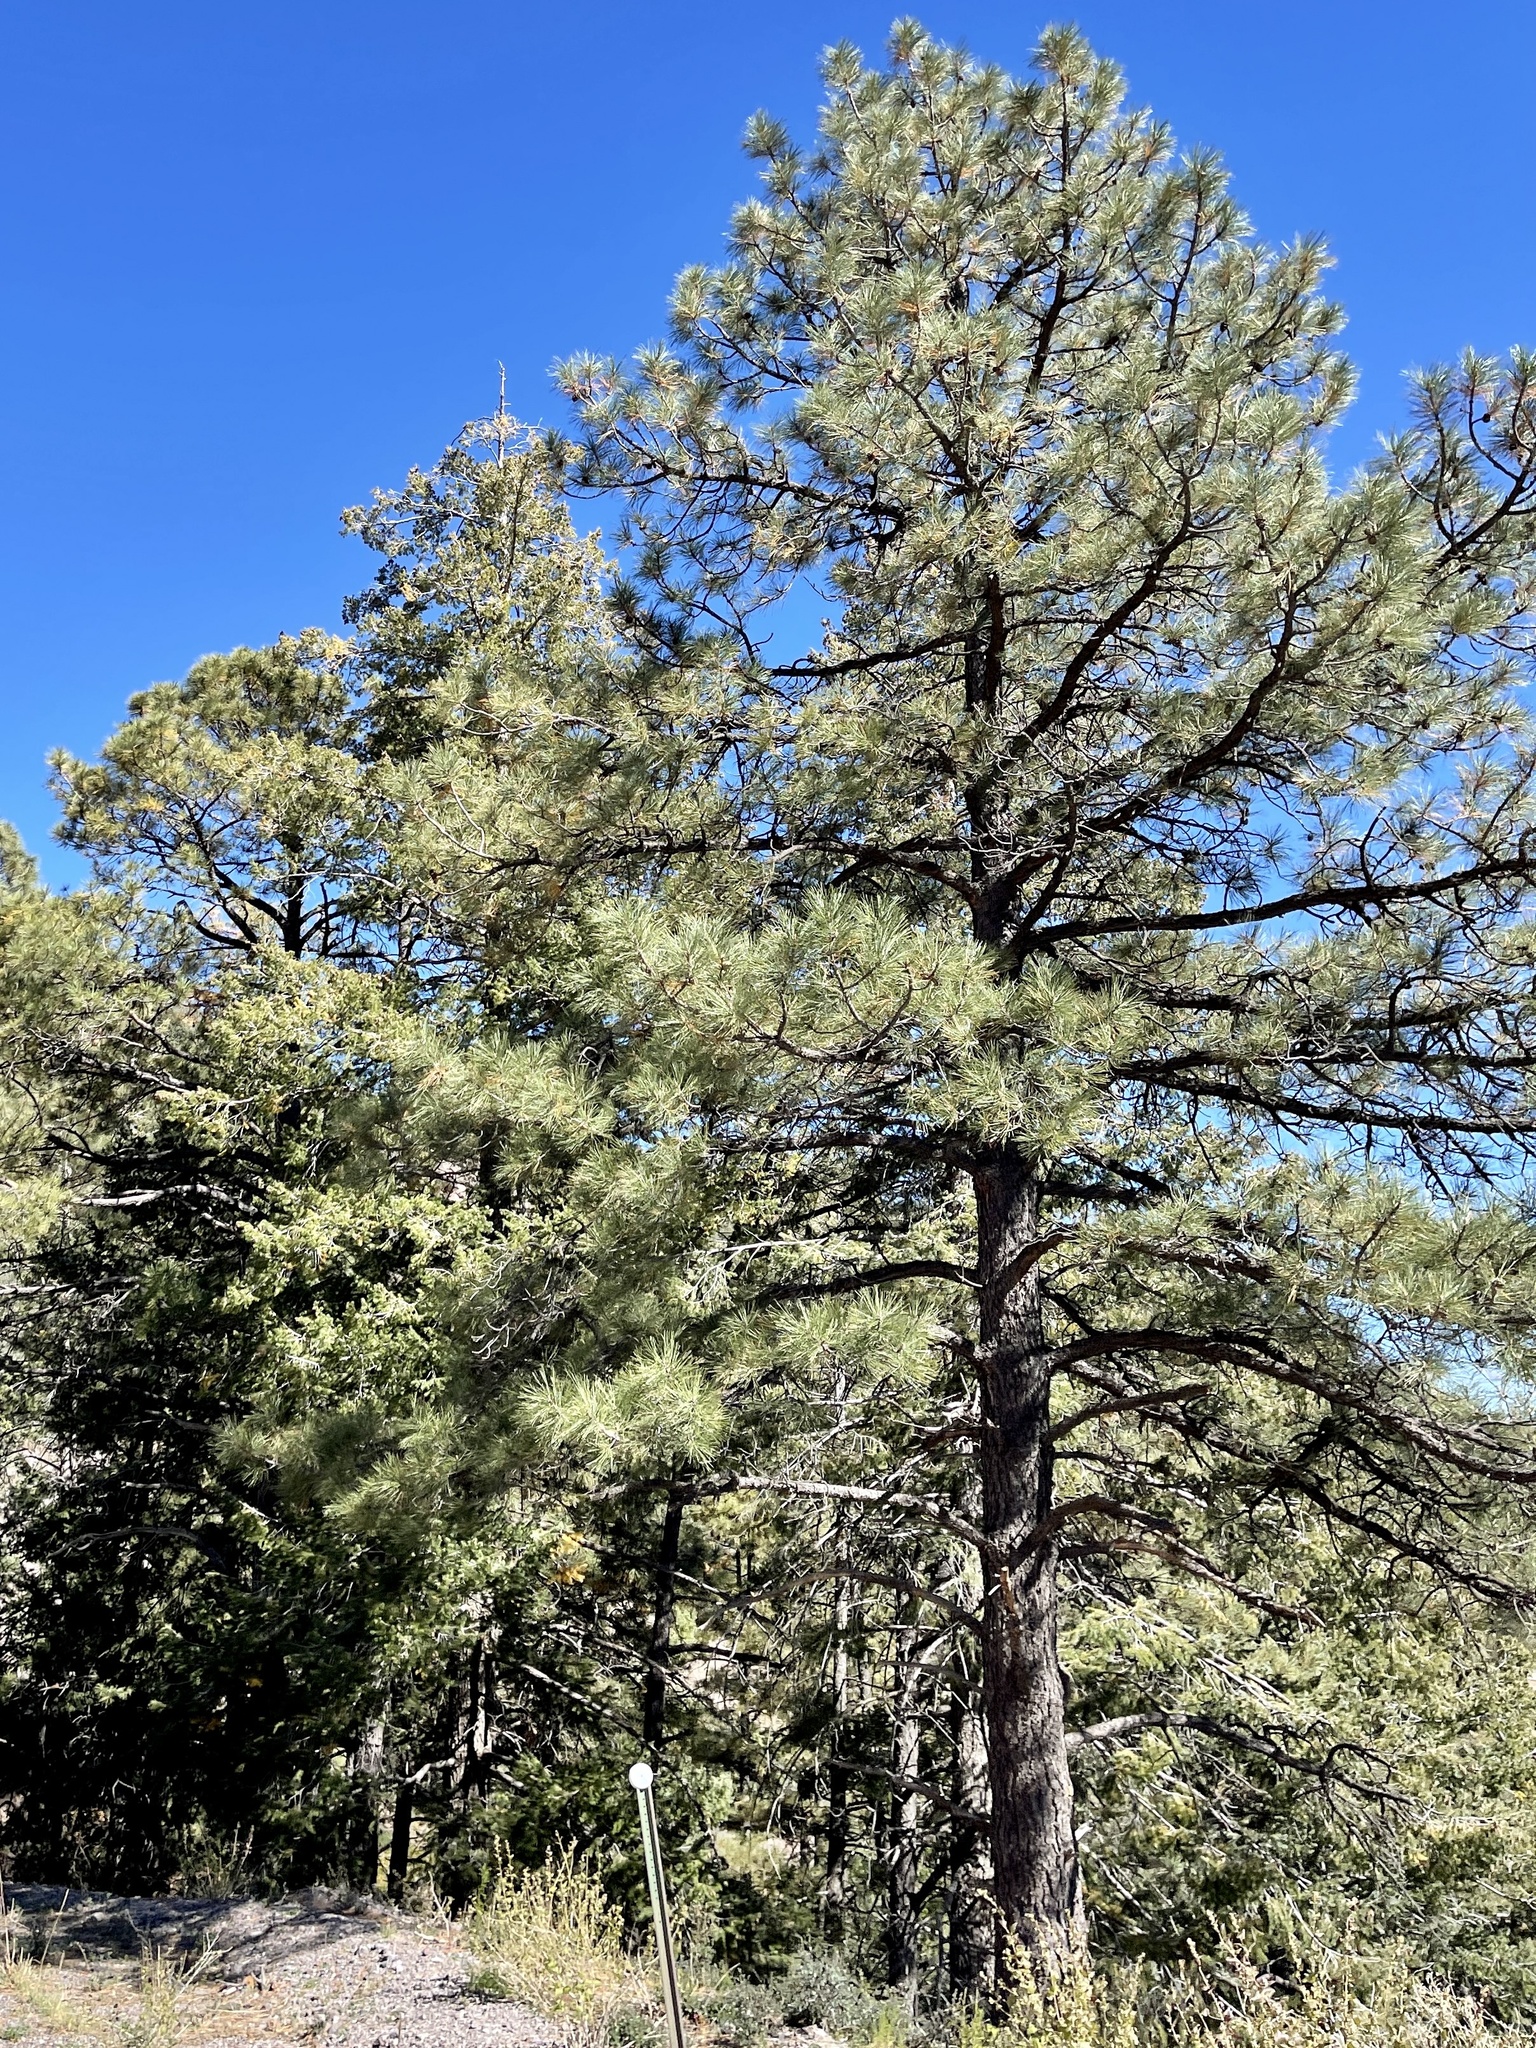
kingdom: Plantae
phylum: Tracheophyta
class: Pinopsida
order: Pinales
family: Pinaceae
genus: Pinus
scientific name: Pinus ponderosa
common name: Western yellow-pine
